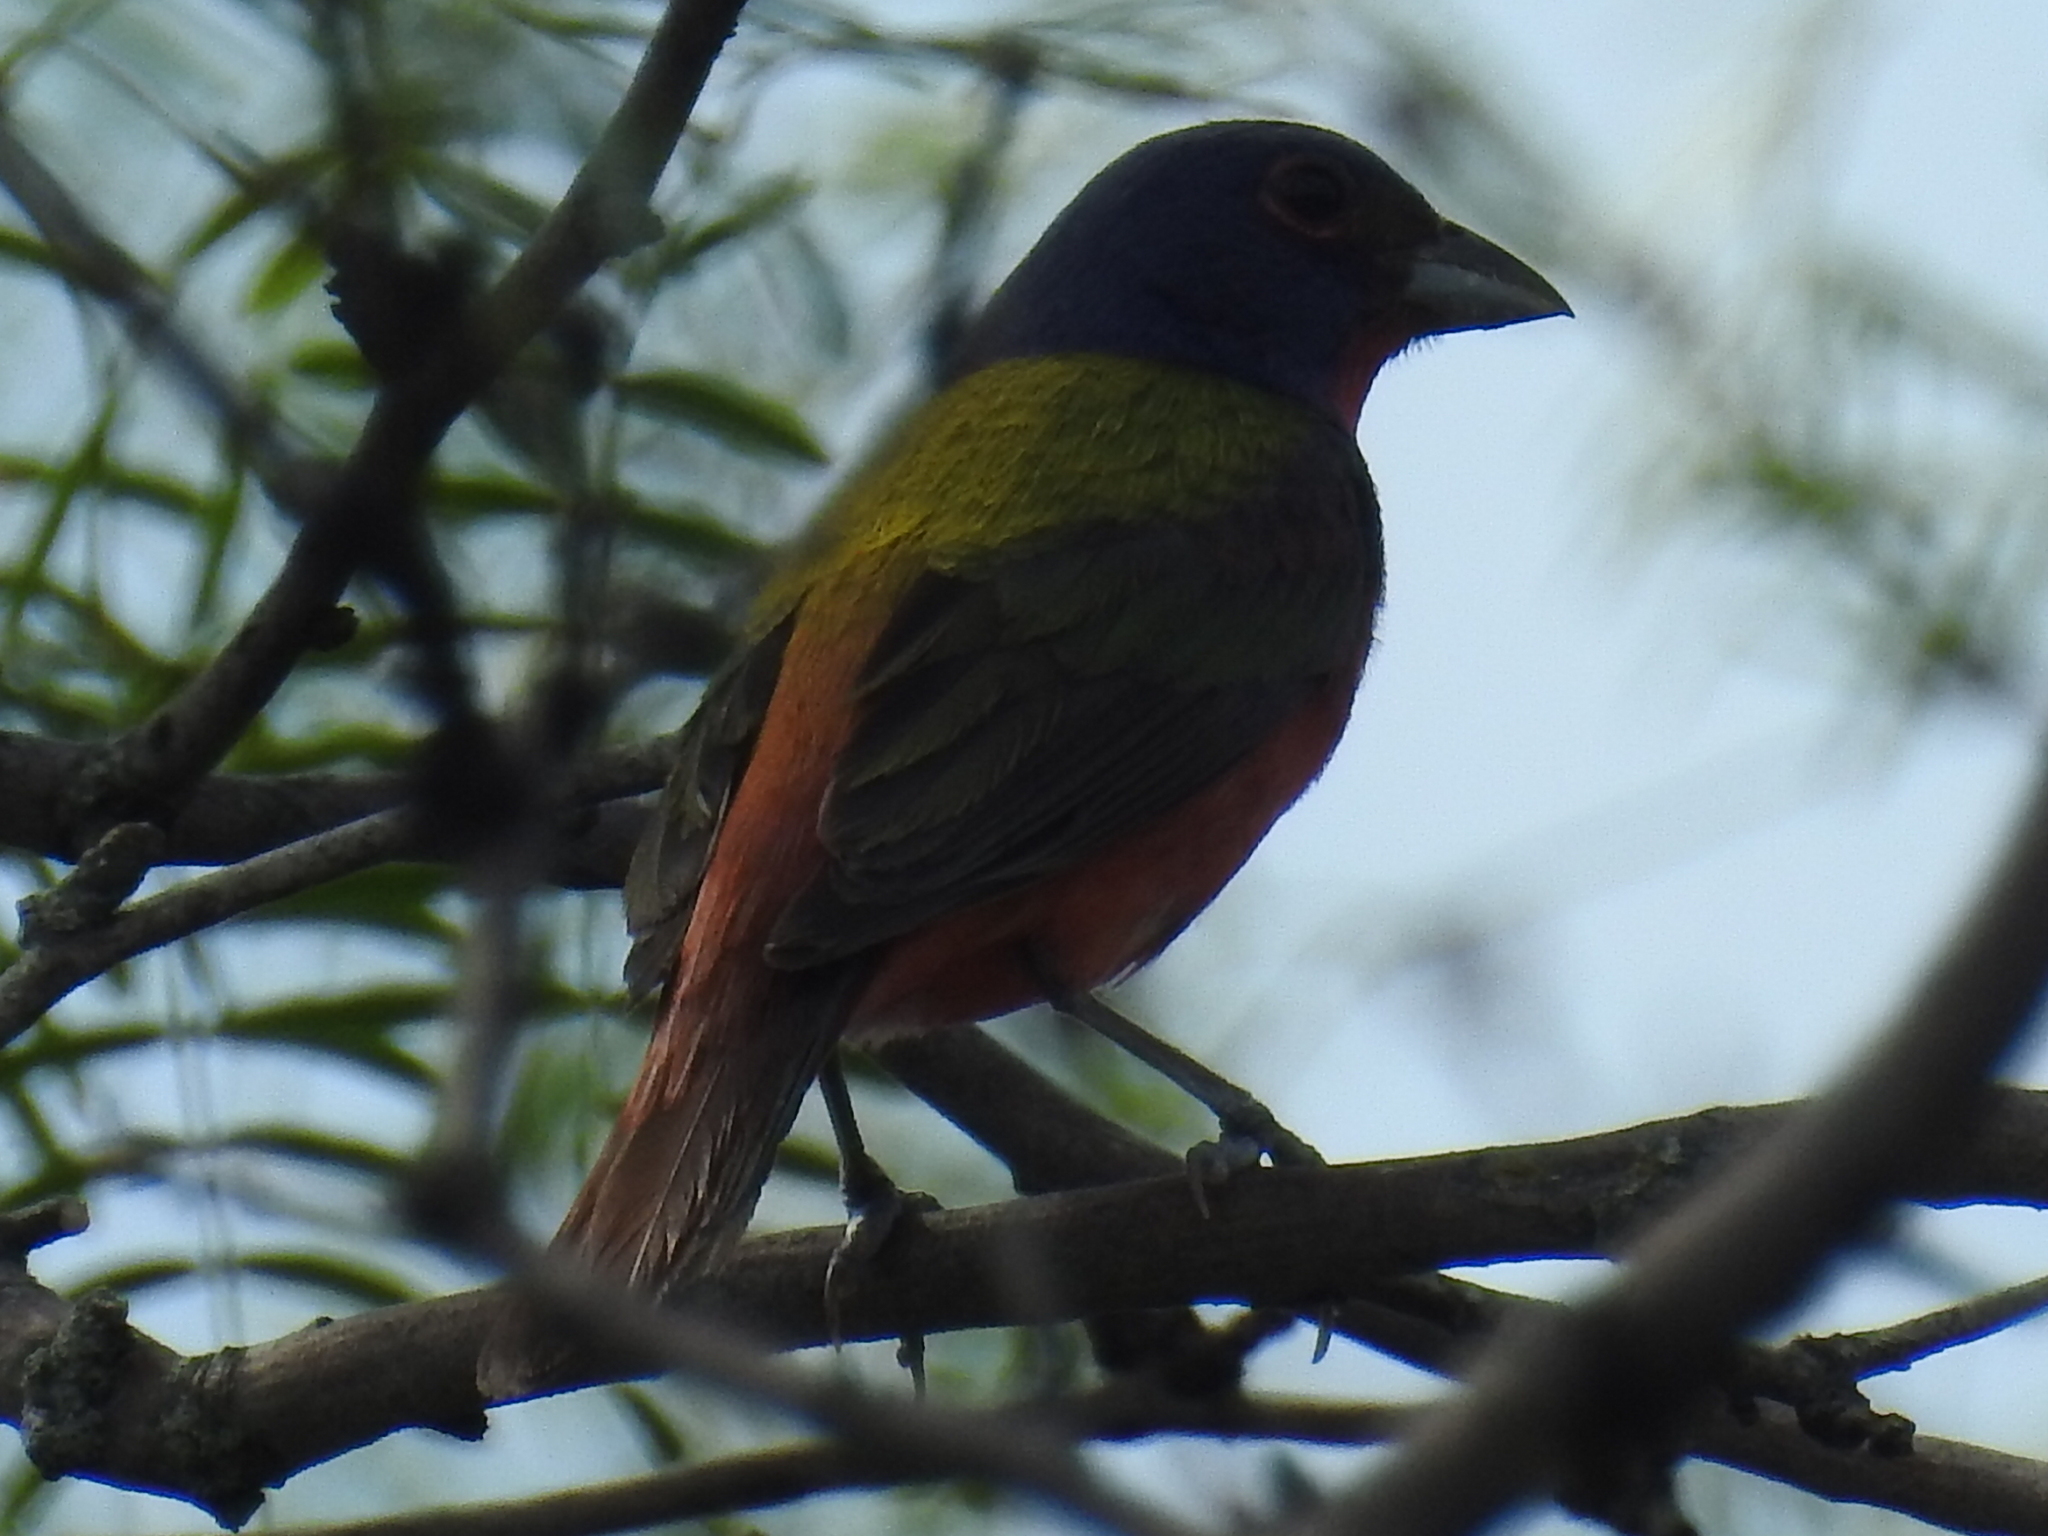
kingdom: Animalia
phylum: Chordata
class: Aves
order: Passeriformes
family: Cardinalidae
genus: Passerina
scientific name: Passerina ciris
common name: Painted bunting
